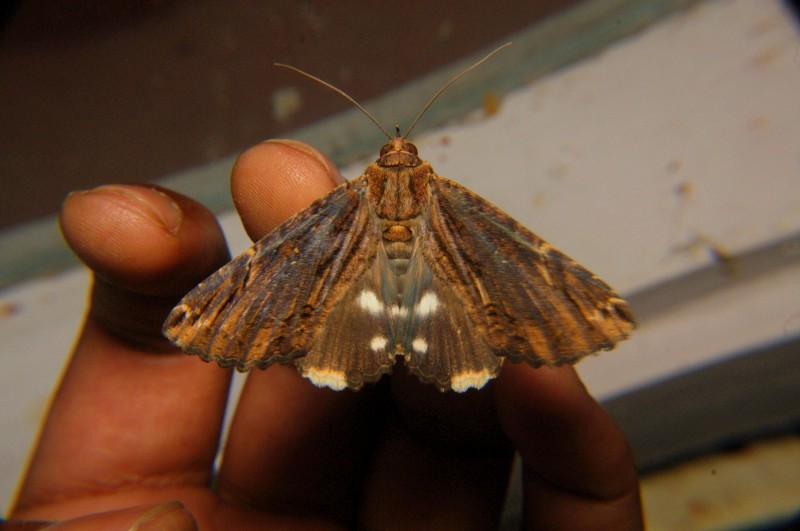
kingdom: Animalia
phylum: Arthropoda
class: Insecta
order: Lepidoptera
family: Erebidae
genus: Ercheia
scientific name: Ercheia cyllaria
